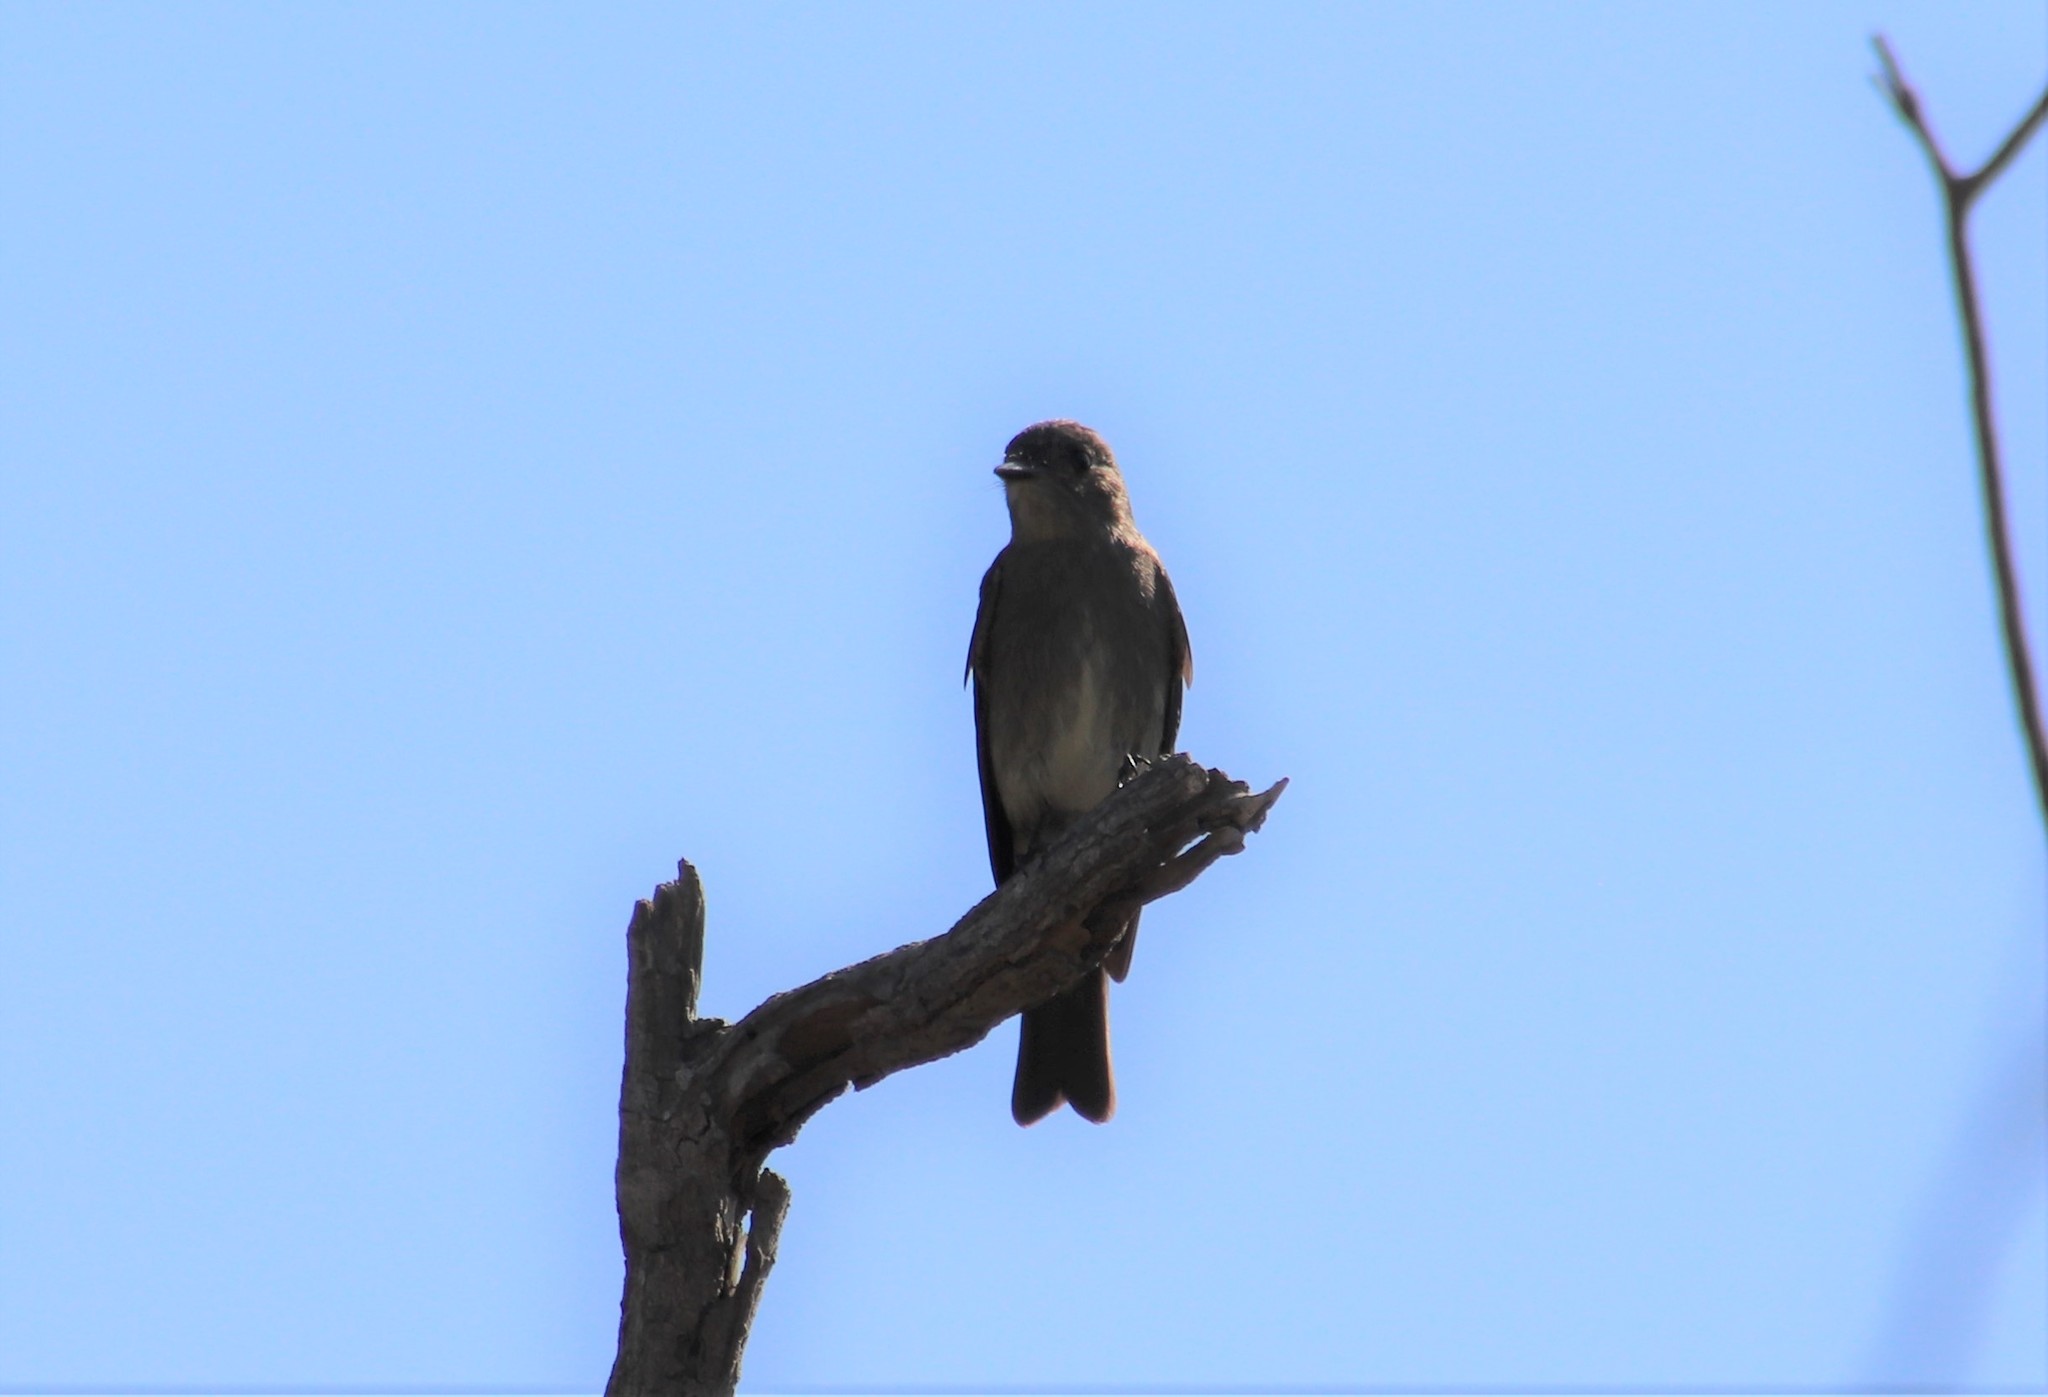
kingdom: Animalia
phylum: Chordata
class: Aves
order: Passeriformes
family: Tyrannidae
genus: Contopus
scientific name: Contopus sordidulus
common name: Western wood-pewee
